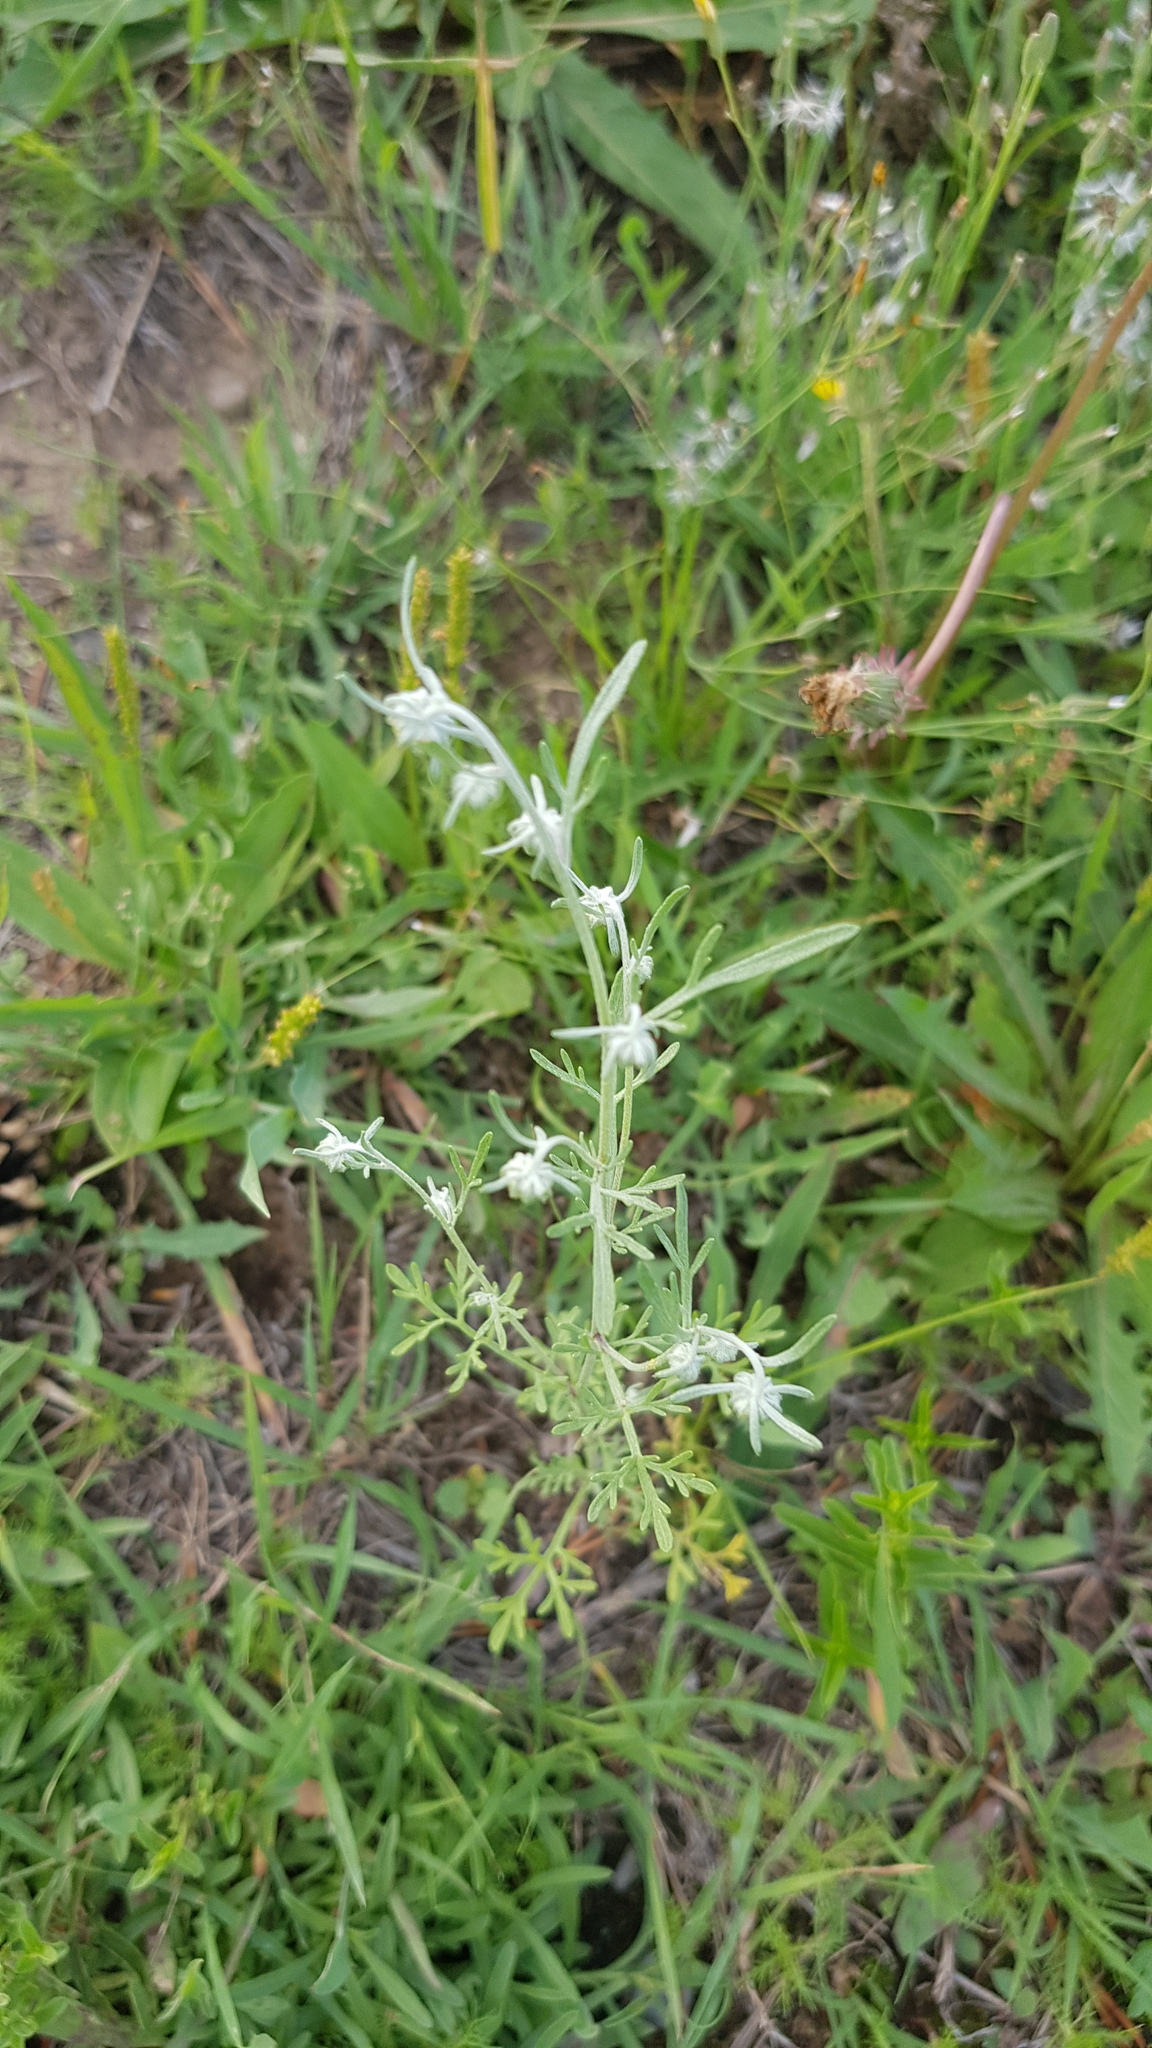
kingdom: Plantae
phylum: Tracheophyta
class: Magnoliopsida
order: Asterales
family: Asteraceae
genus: Artemisia
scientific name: Artemisia sieversiana
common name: Sieversian wormwood
